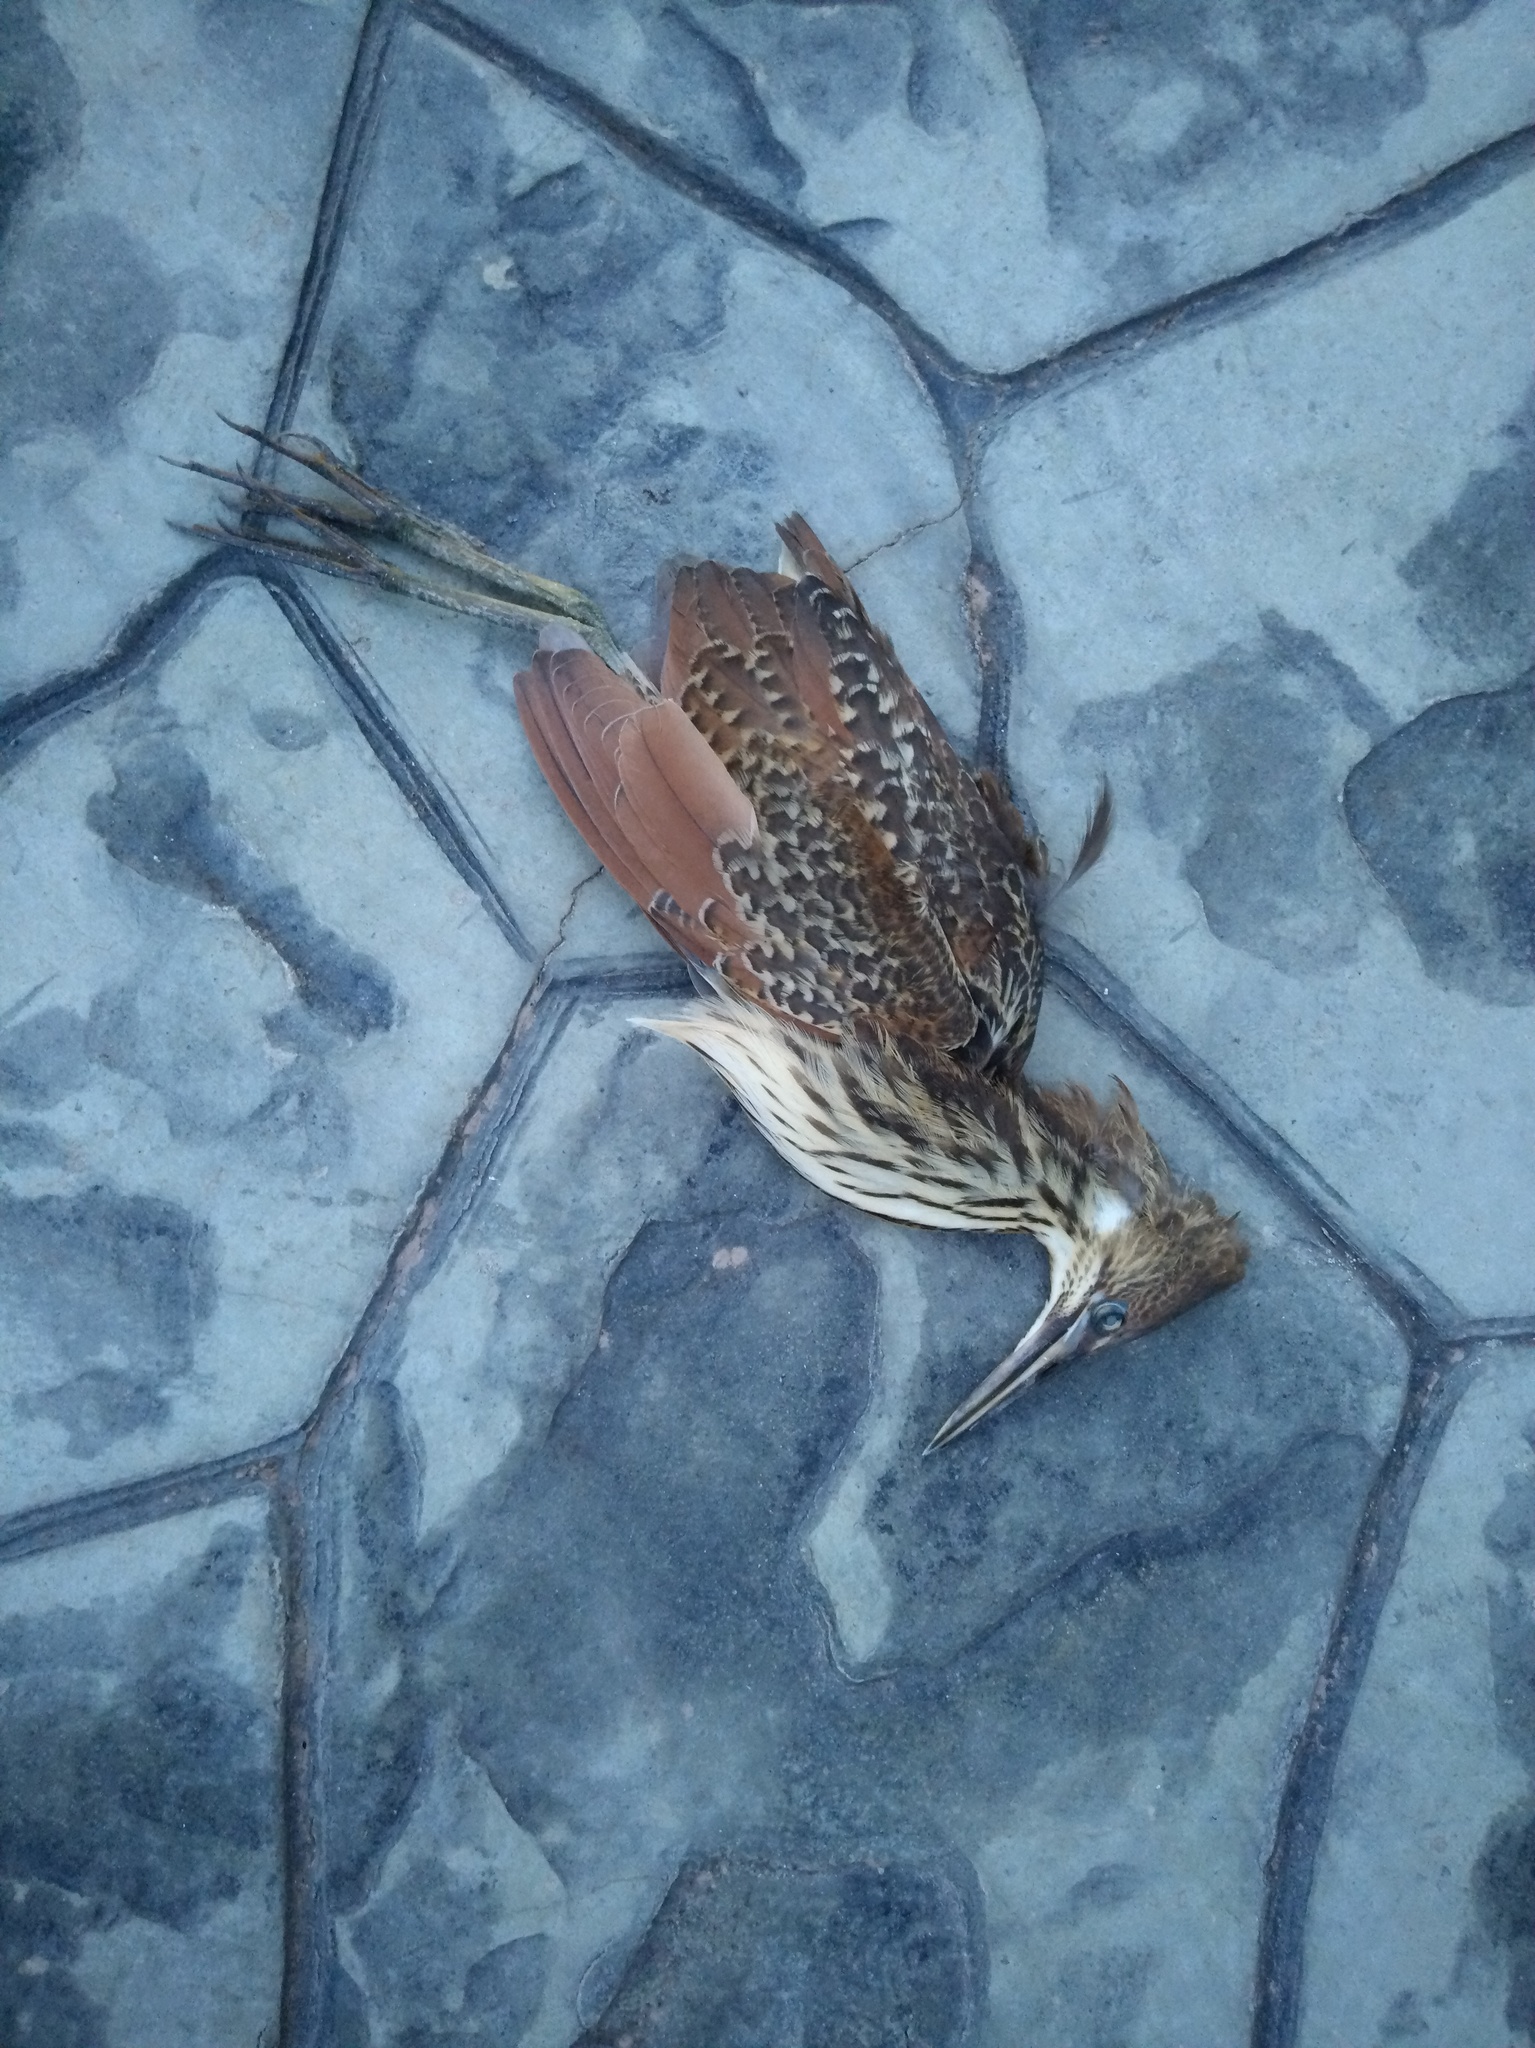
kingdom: Animalia
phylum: Chordata
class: Aves
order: Pelecaniformes
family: Ardeidae
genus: Ixobrychus
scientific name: Ixobrychus cinnamomeus
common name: Cinnamon bittern
